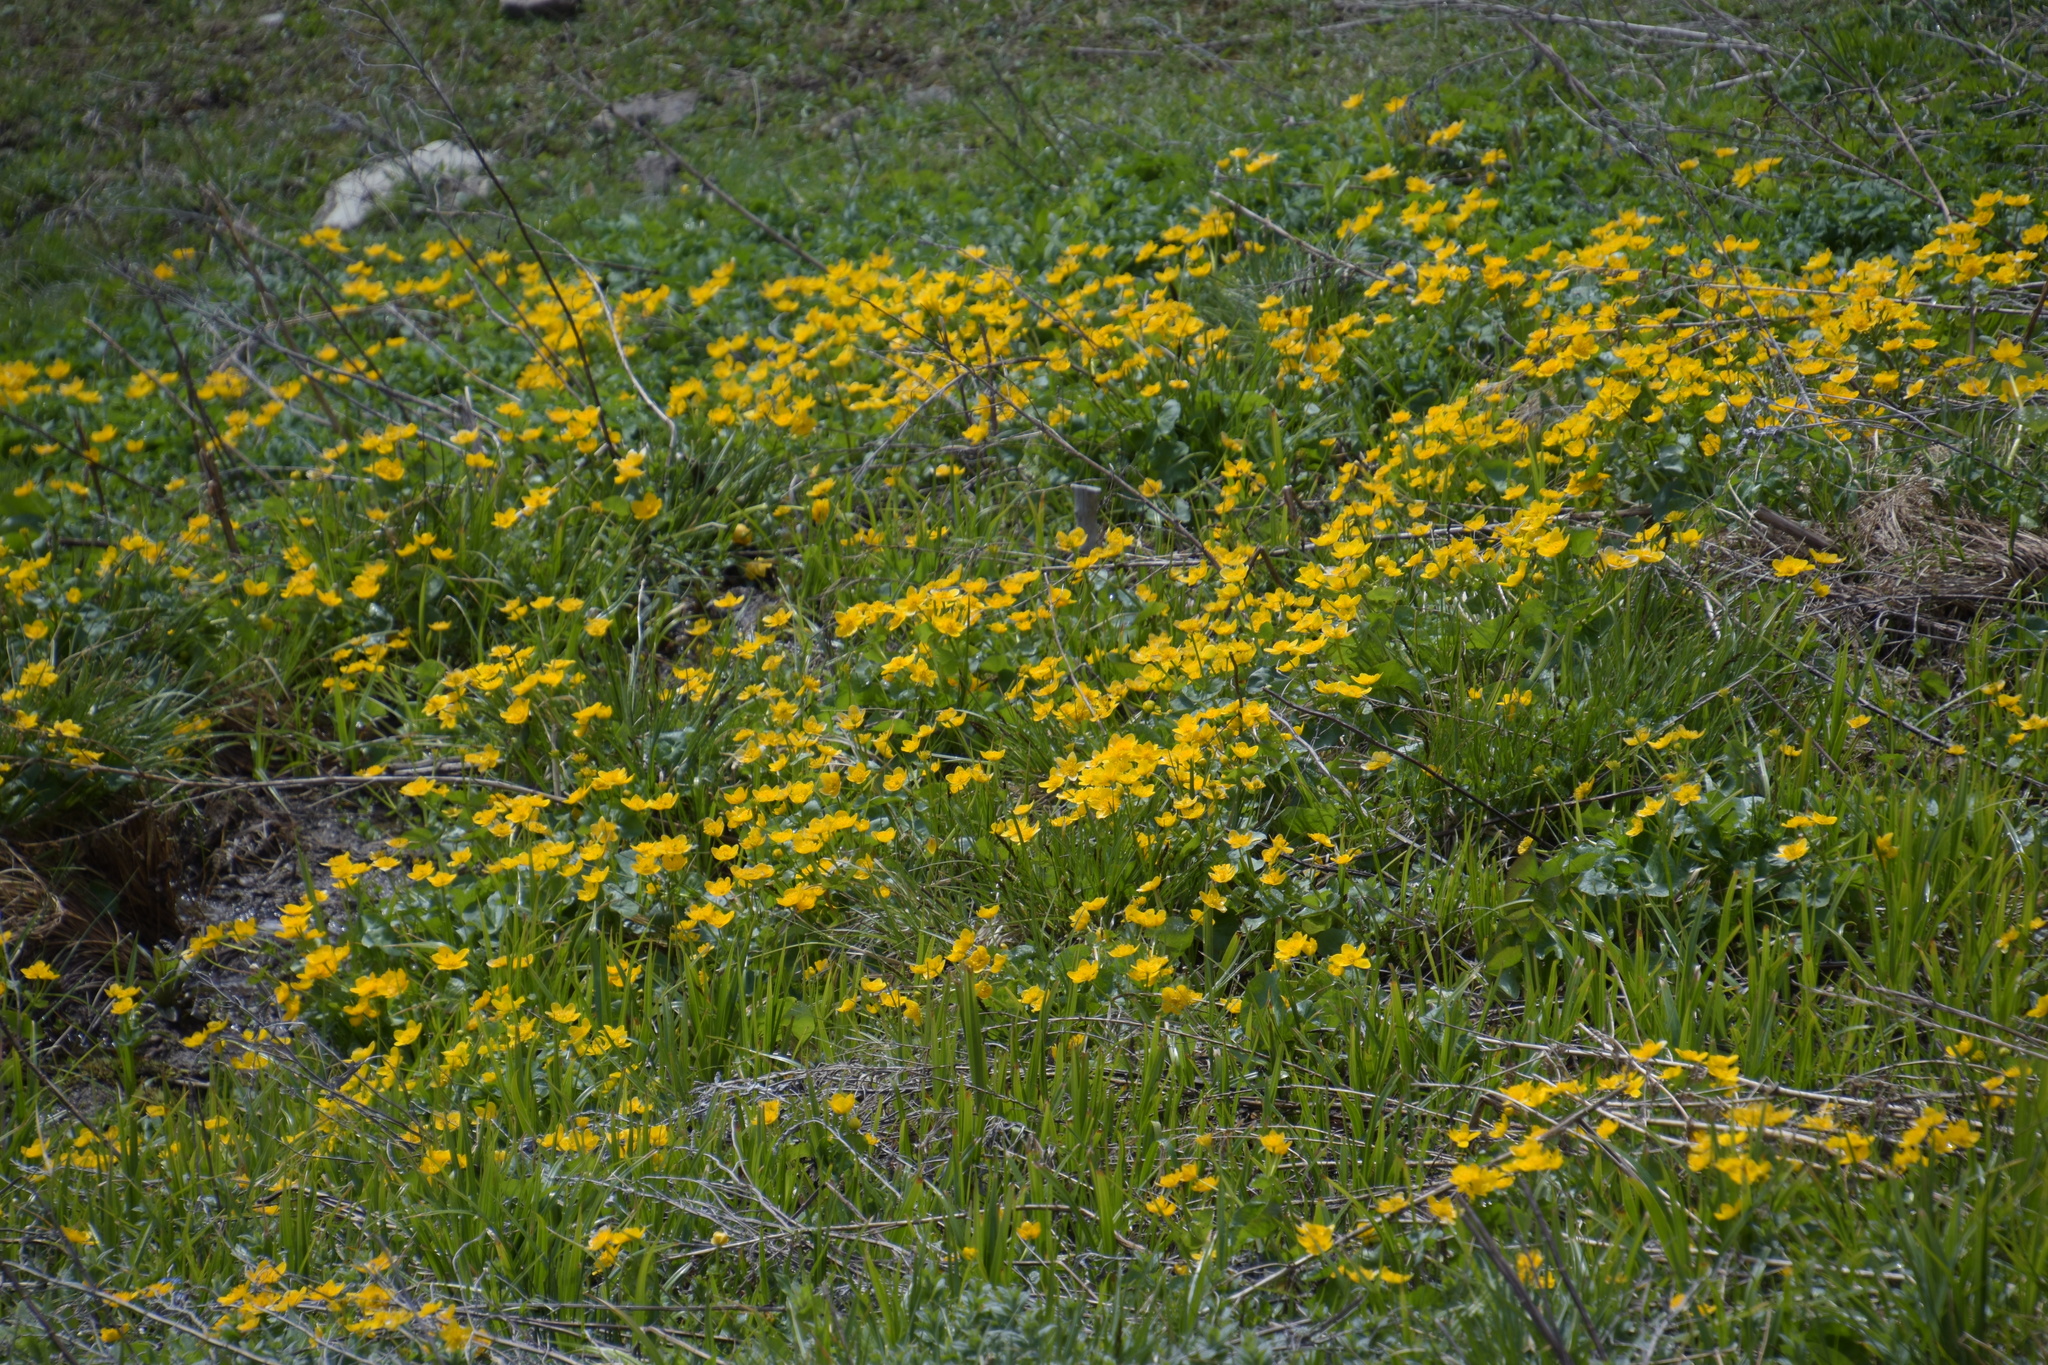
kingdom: Plantae
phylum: Tracheophyta
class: Magnoliopsida
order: Ranunculales
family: Ranunculaceae
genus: Caltha
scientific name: Caltha palustris
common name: Marsh marigold
